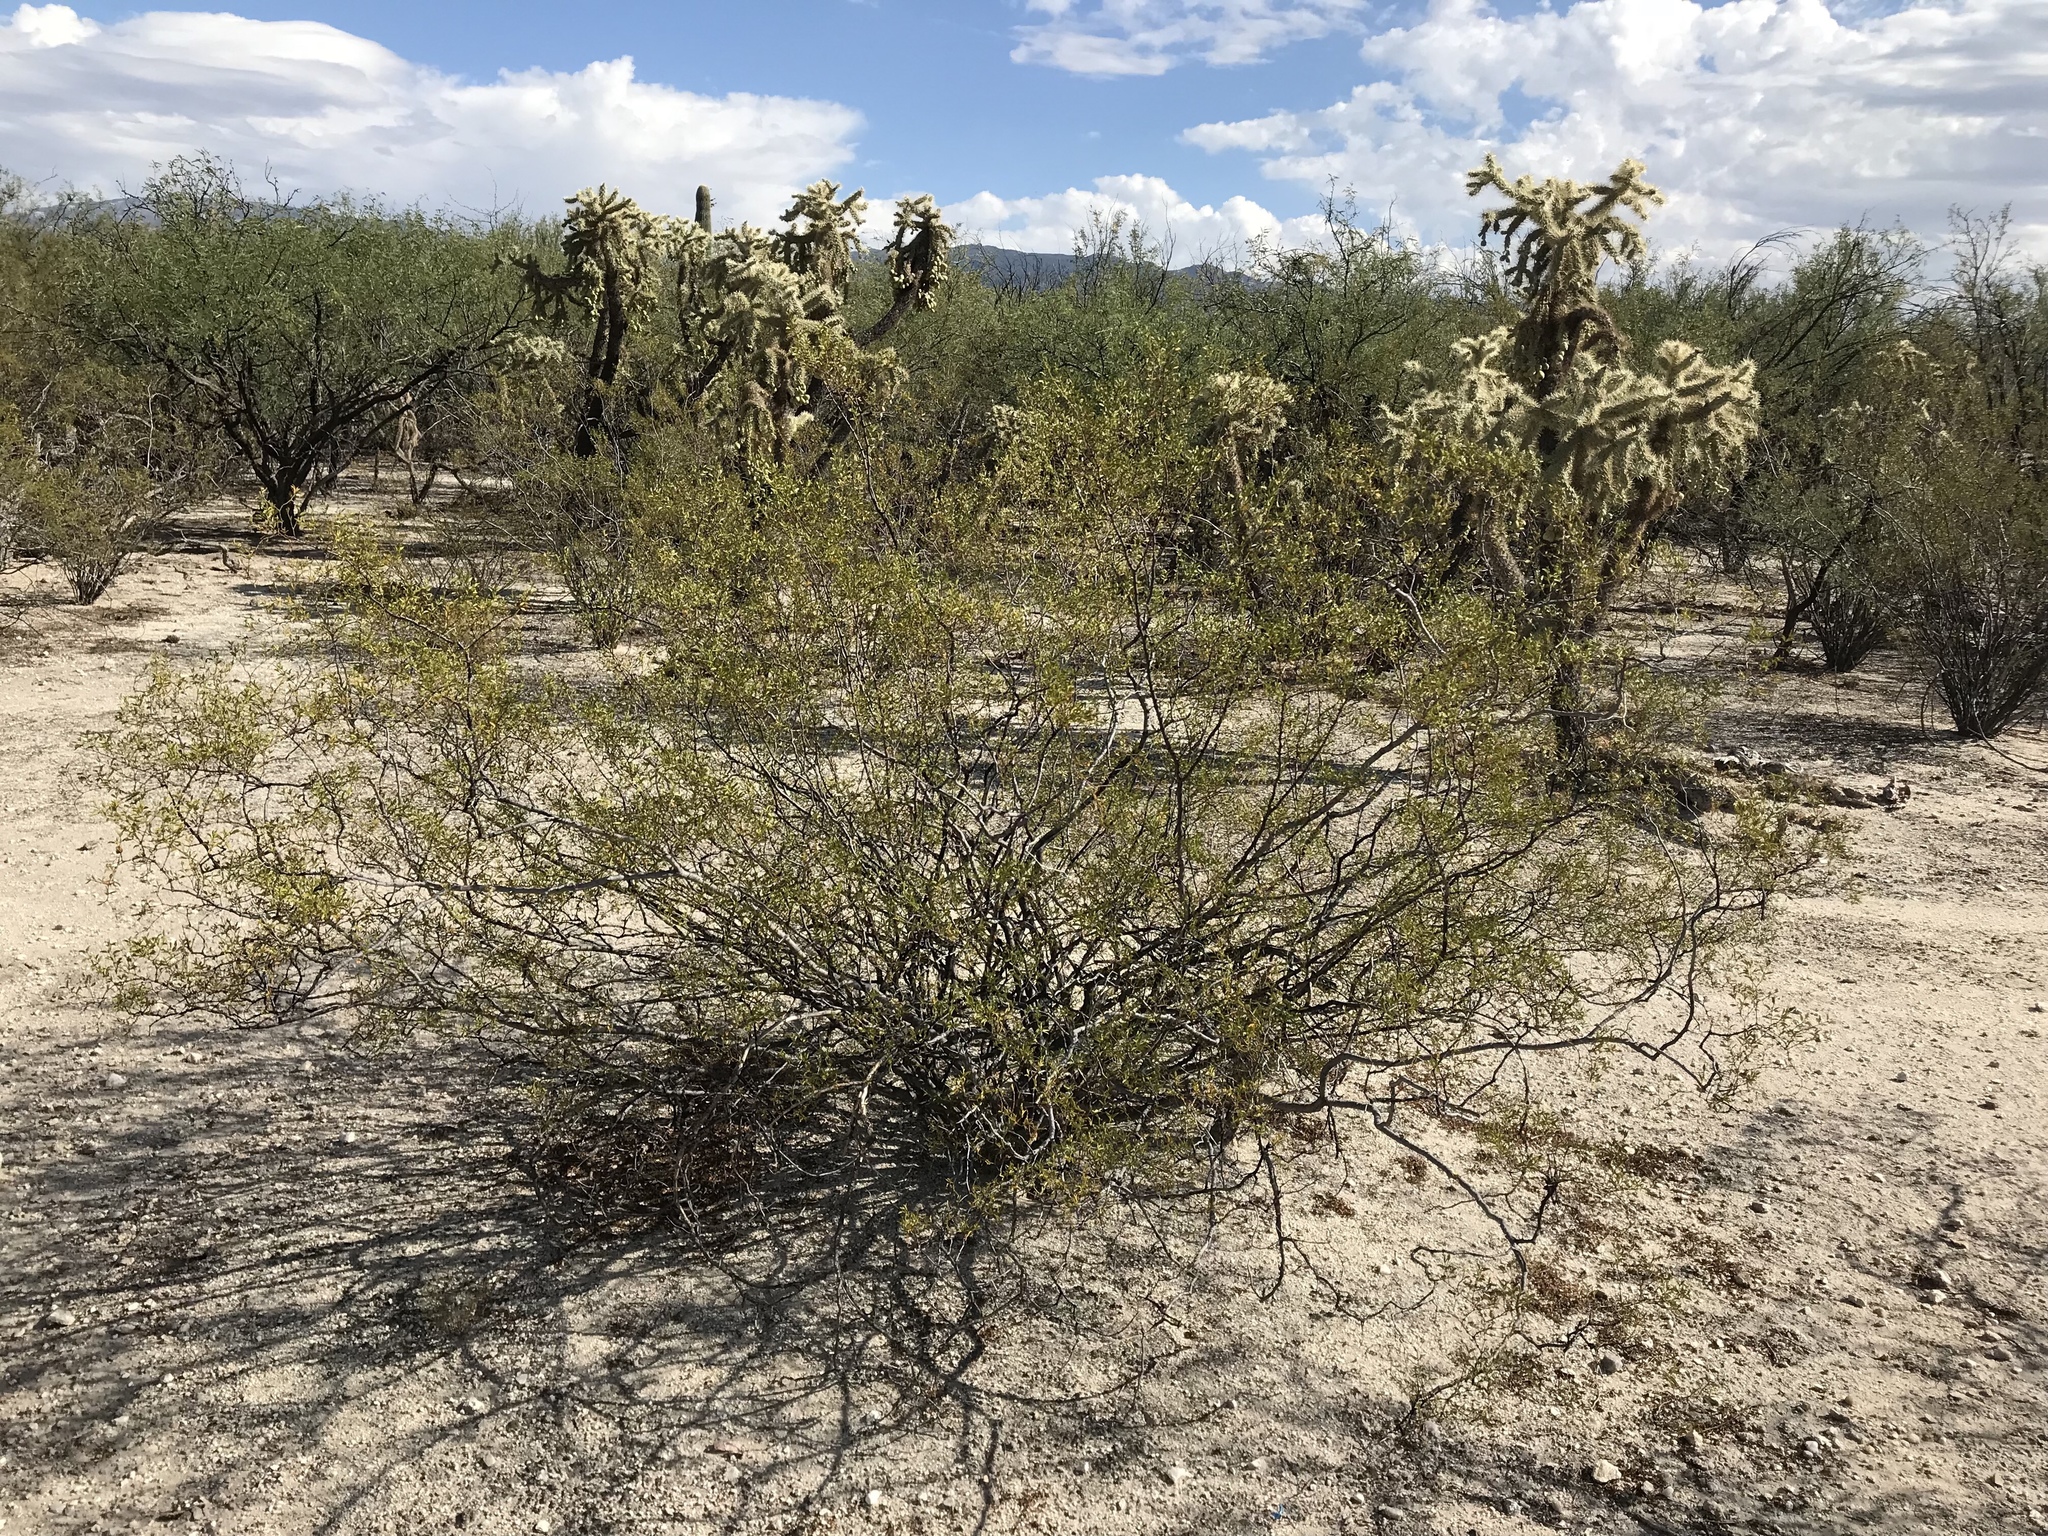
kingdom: Plantae
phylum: Tracheophyta
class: Magnoliopsida
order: Zygophyllales
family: Zygophyllaceae
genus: Larrea
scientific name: Larrea tridentata
